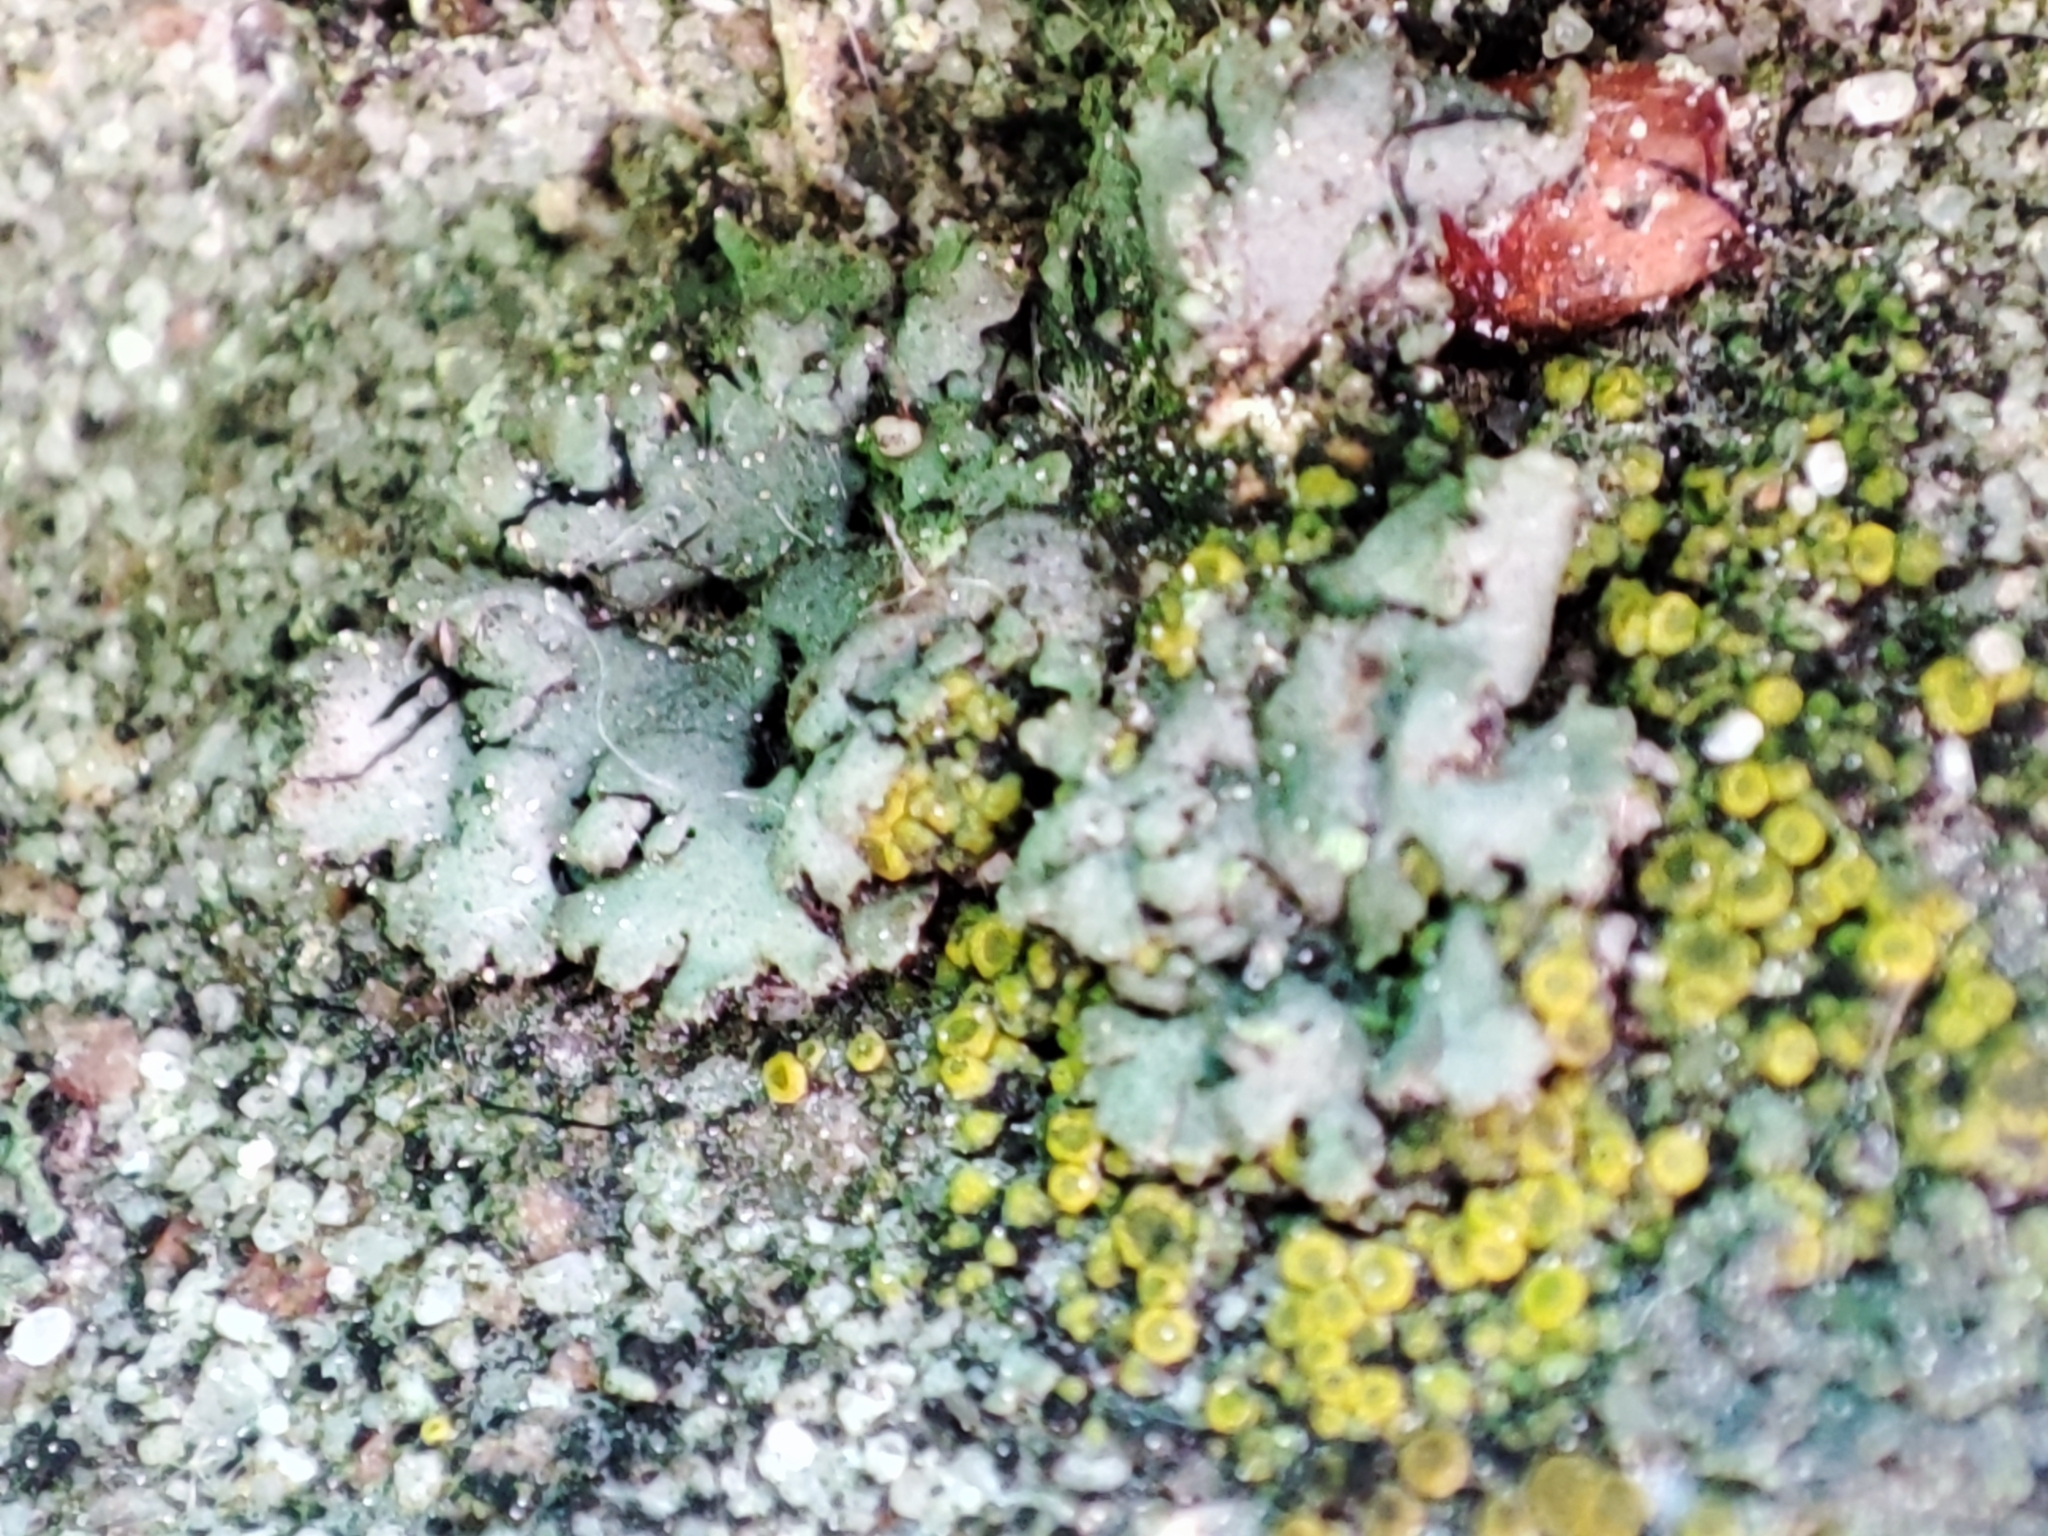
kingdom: Fungi
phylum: Ascomycota
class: Lecanoromycetes
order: Caliciales
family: Physciaceae
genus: Phaeophyscia
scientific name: Phaeophyscia orbicularis
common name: Mealy shadow lichen
